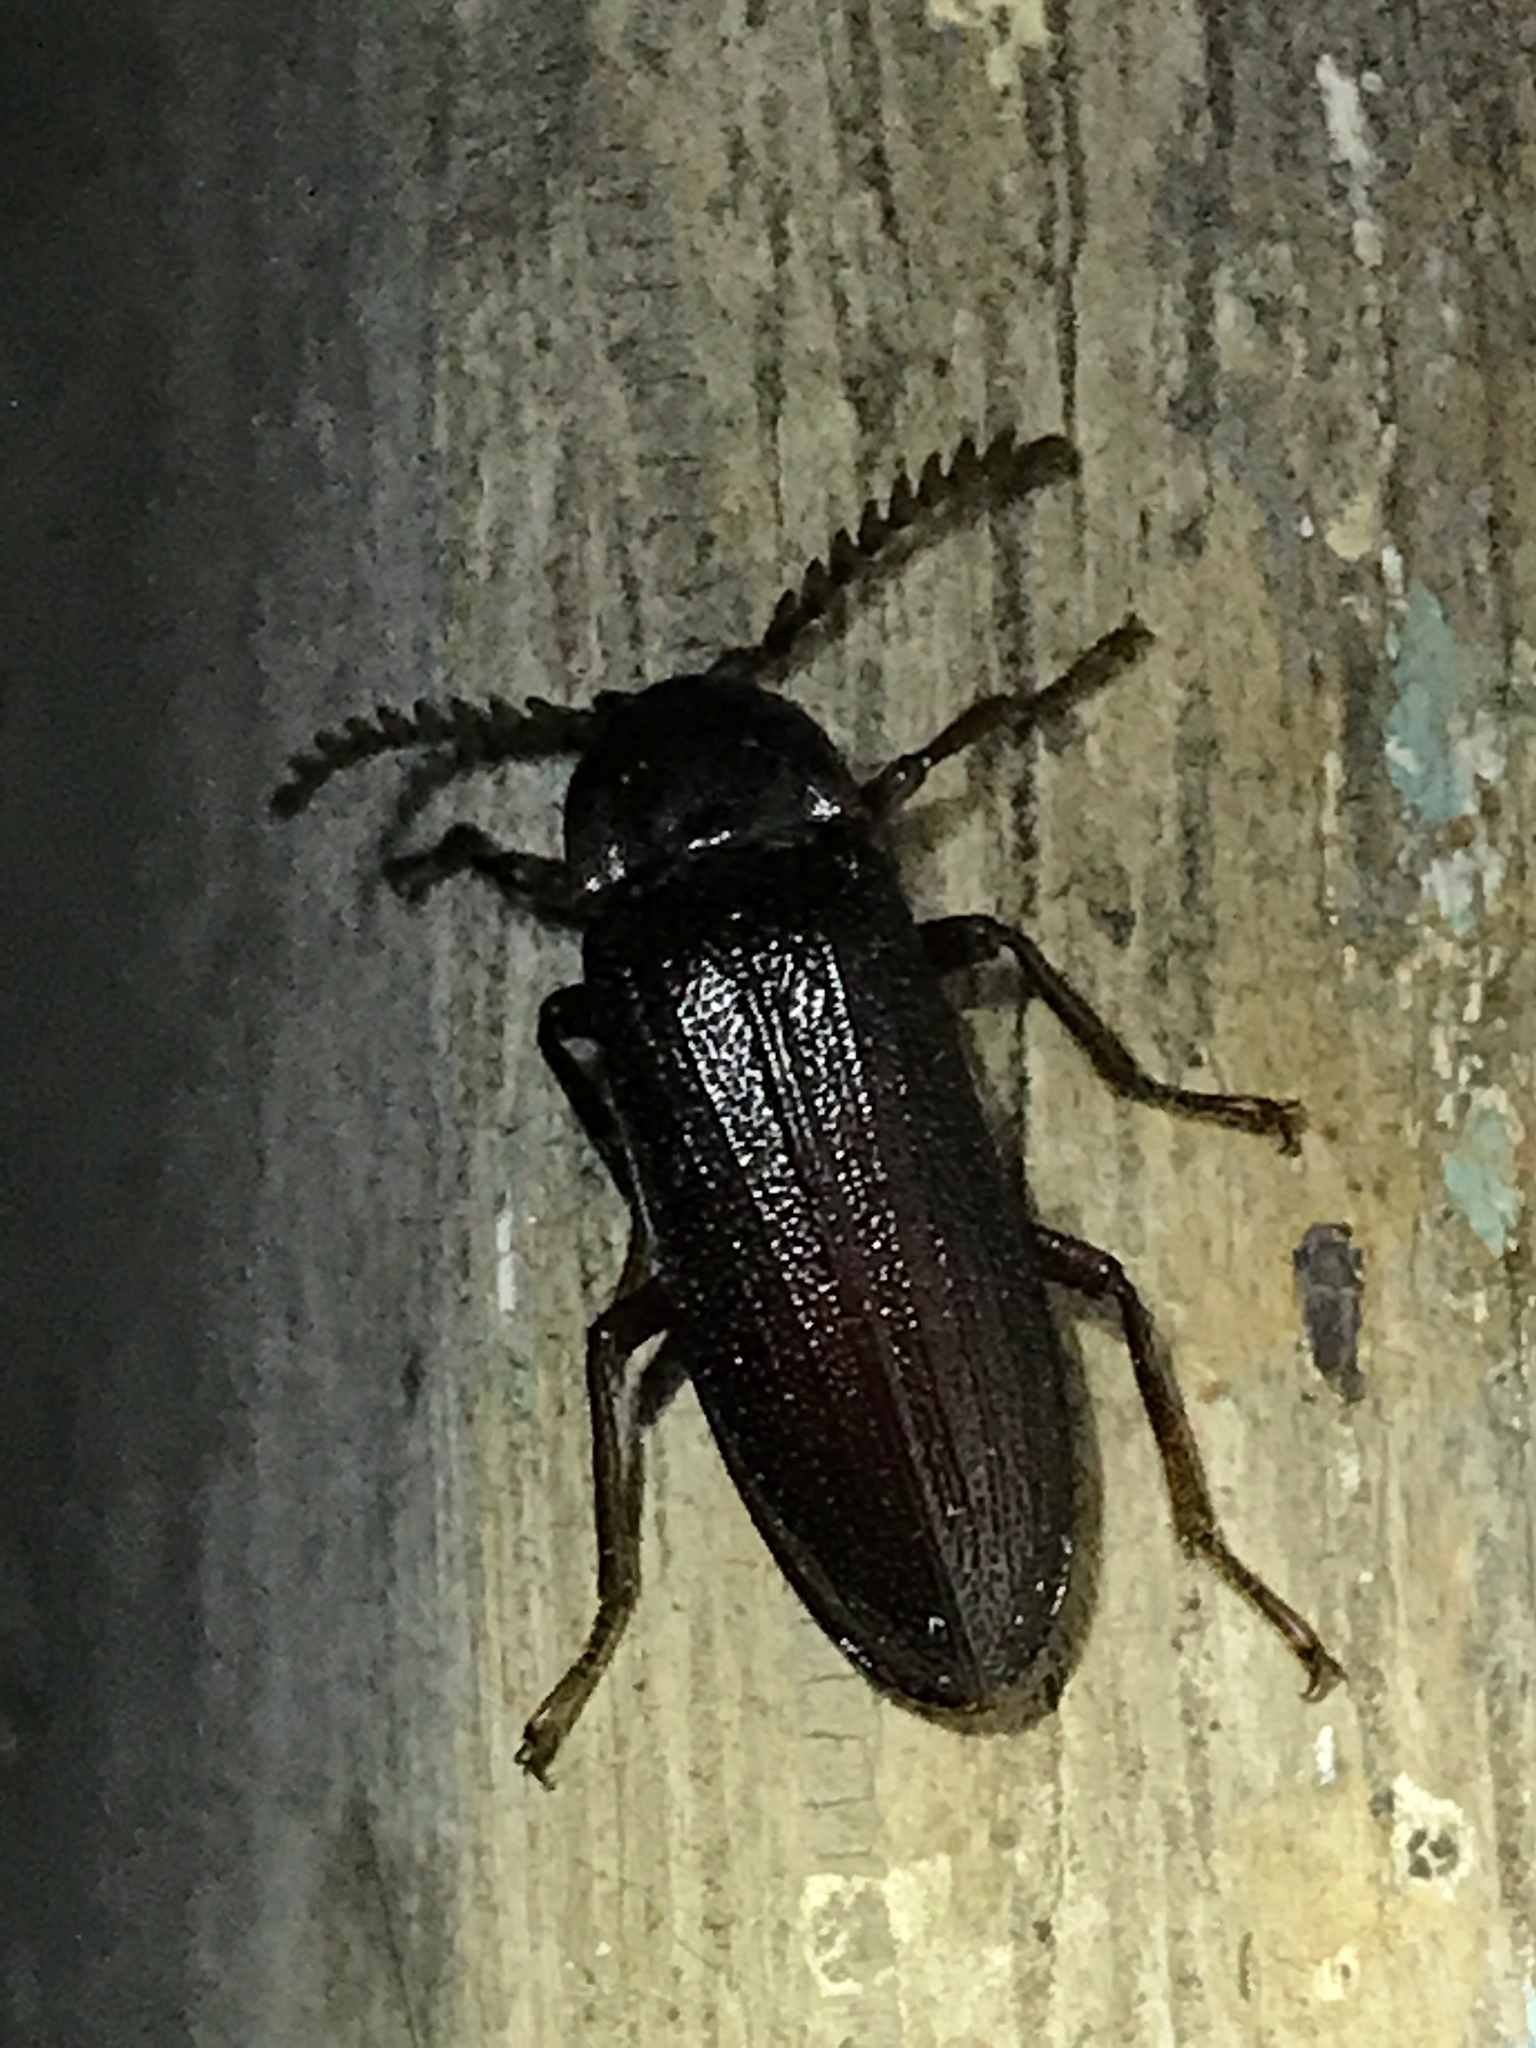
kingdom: Animalia
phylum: Arthropoda
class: Insecta
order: Coleoptera
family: Callirhipidae
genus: Zenoa
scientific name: Zenoa picea
